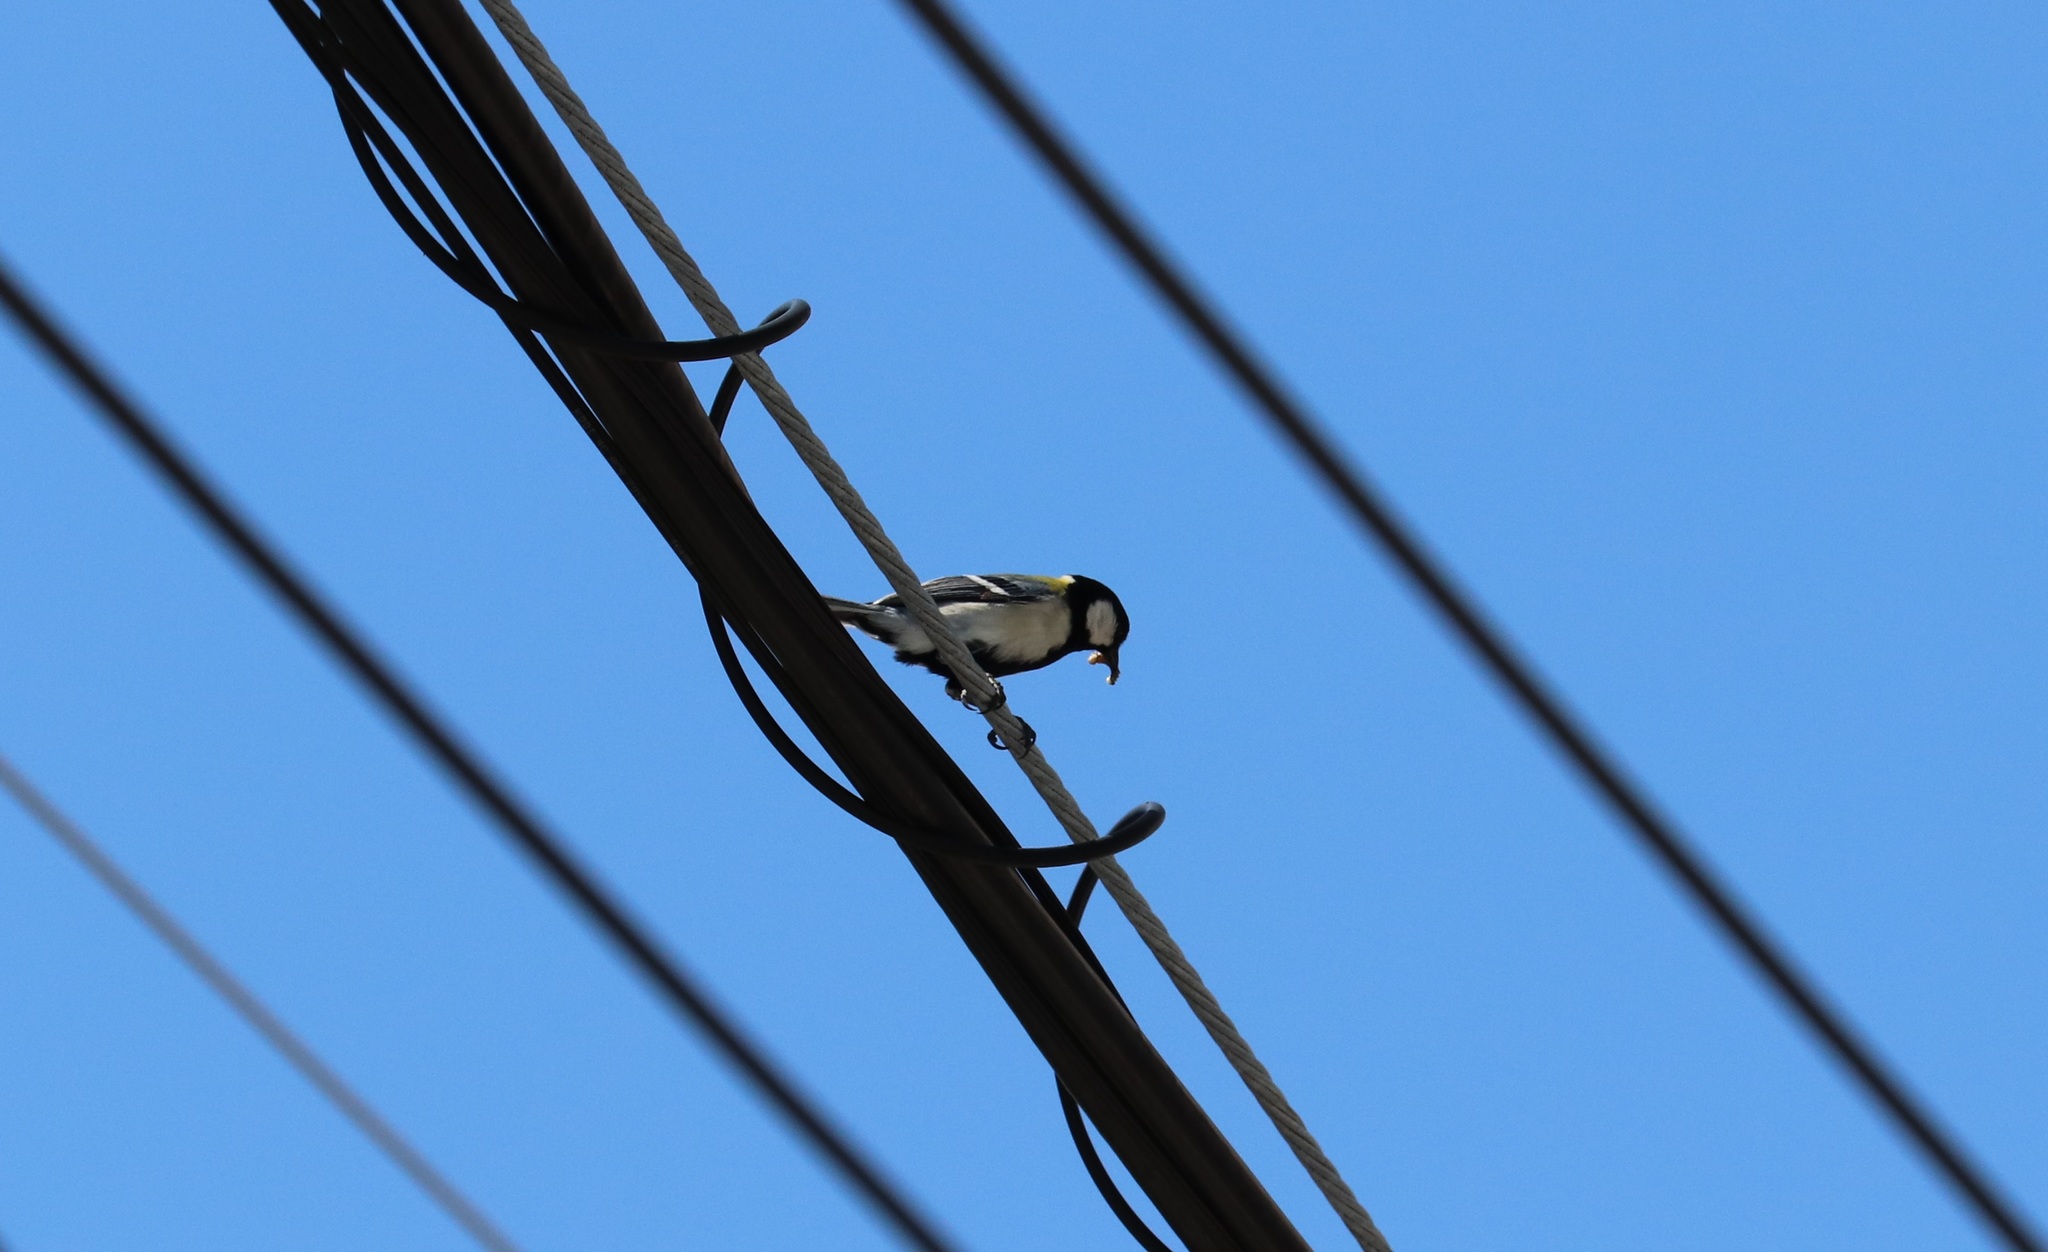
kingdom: Animalia
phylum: Chordata
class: Aves
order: Passeriformes
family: Paridae
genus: Parus
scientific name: Parus minor
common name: Japanese tit
